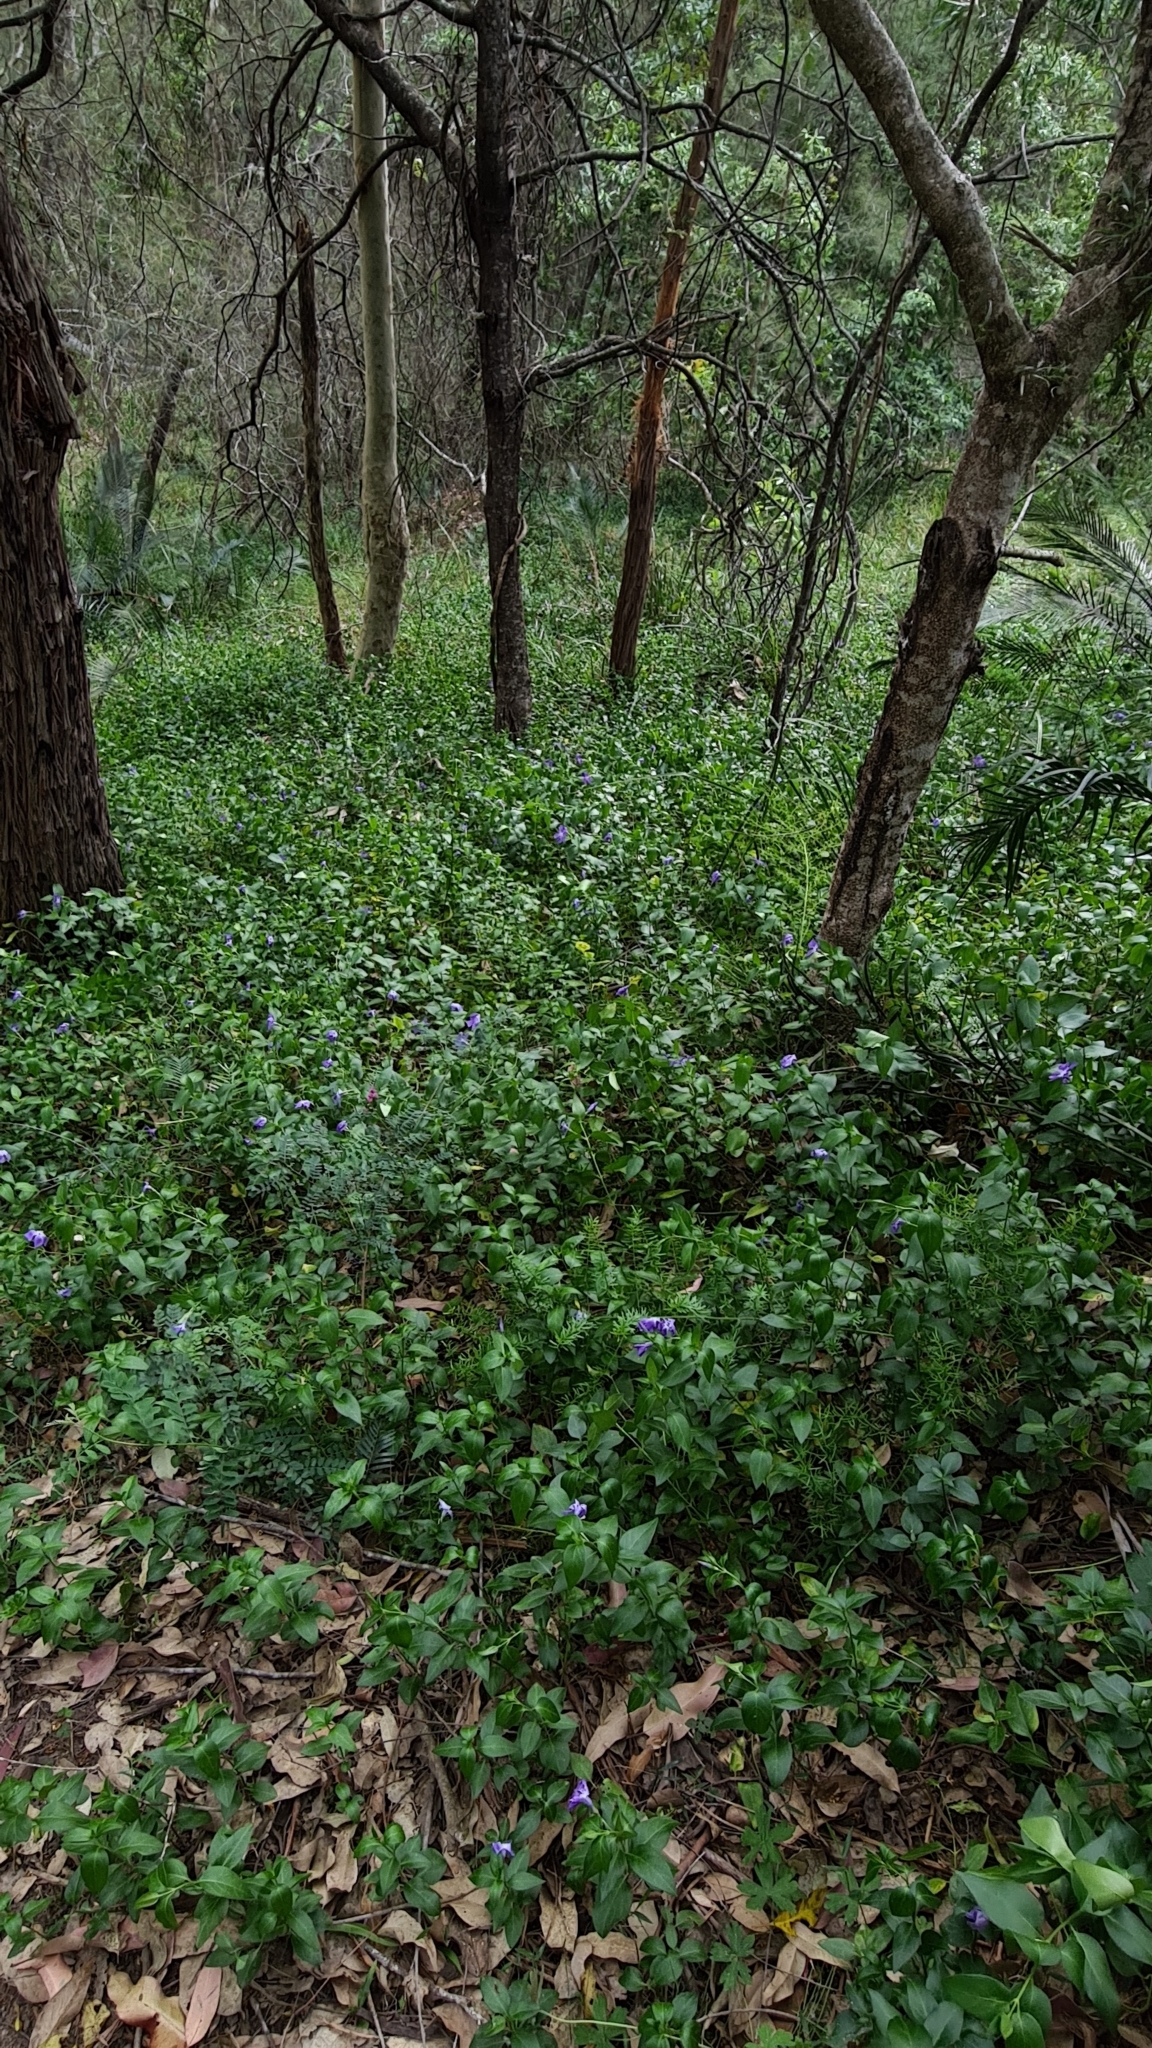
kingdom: Plantae
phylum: Tracheophyta
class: Magnoliopsida
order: Gentianales
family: Apocynaceae
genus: Vinca
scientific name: Vinca major
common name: Greater periwinkle
